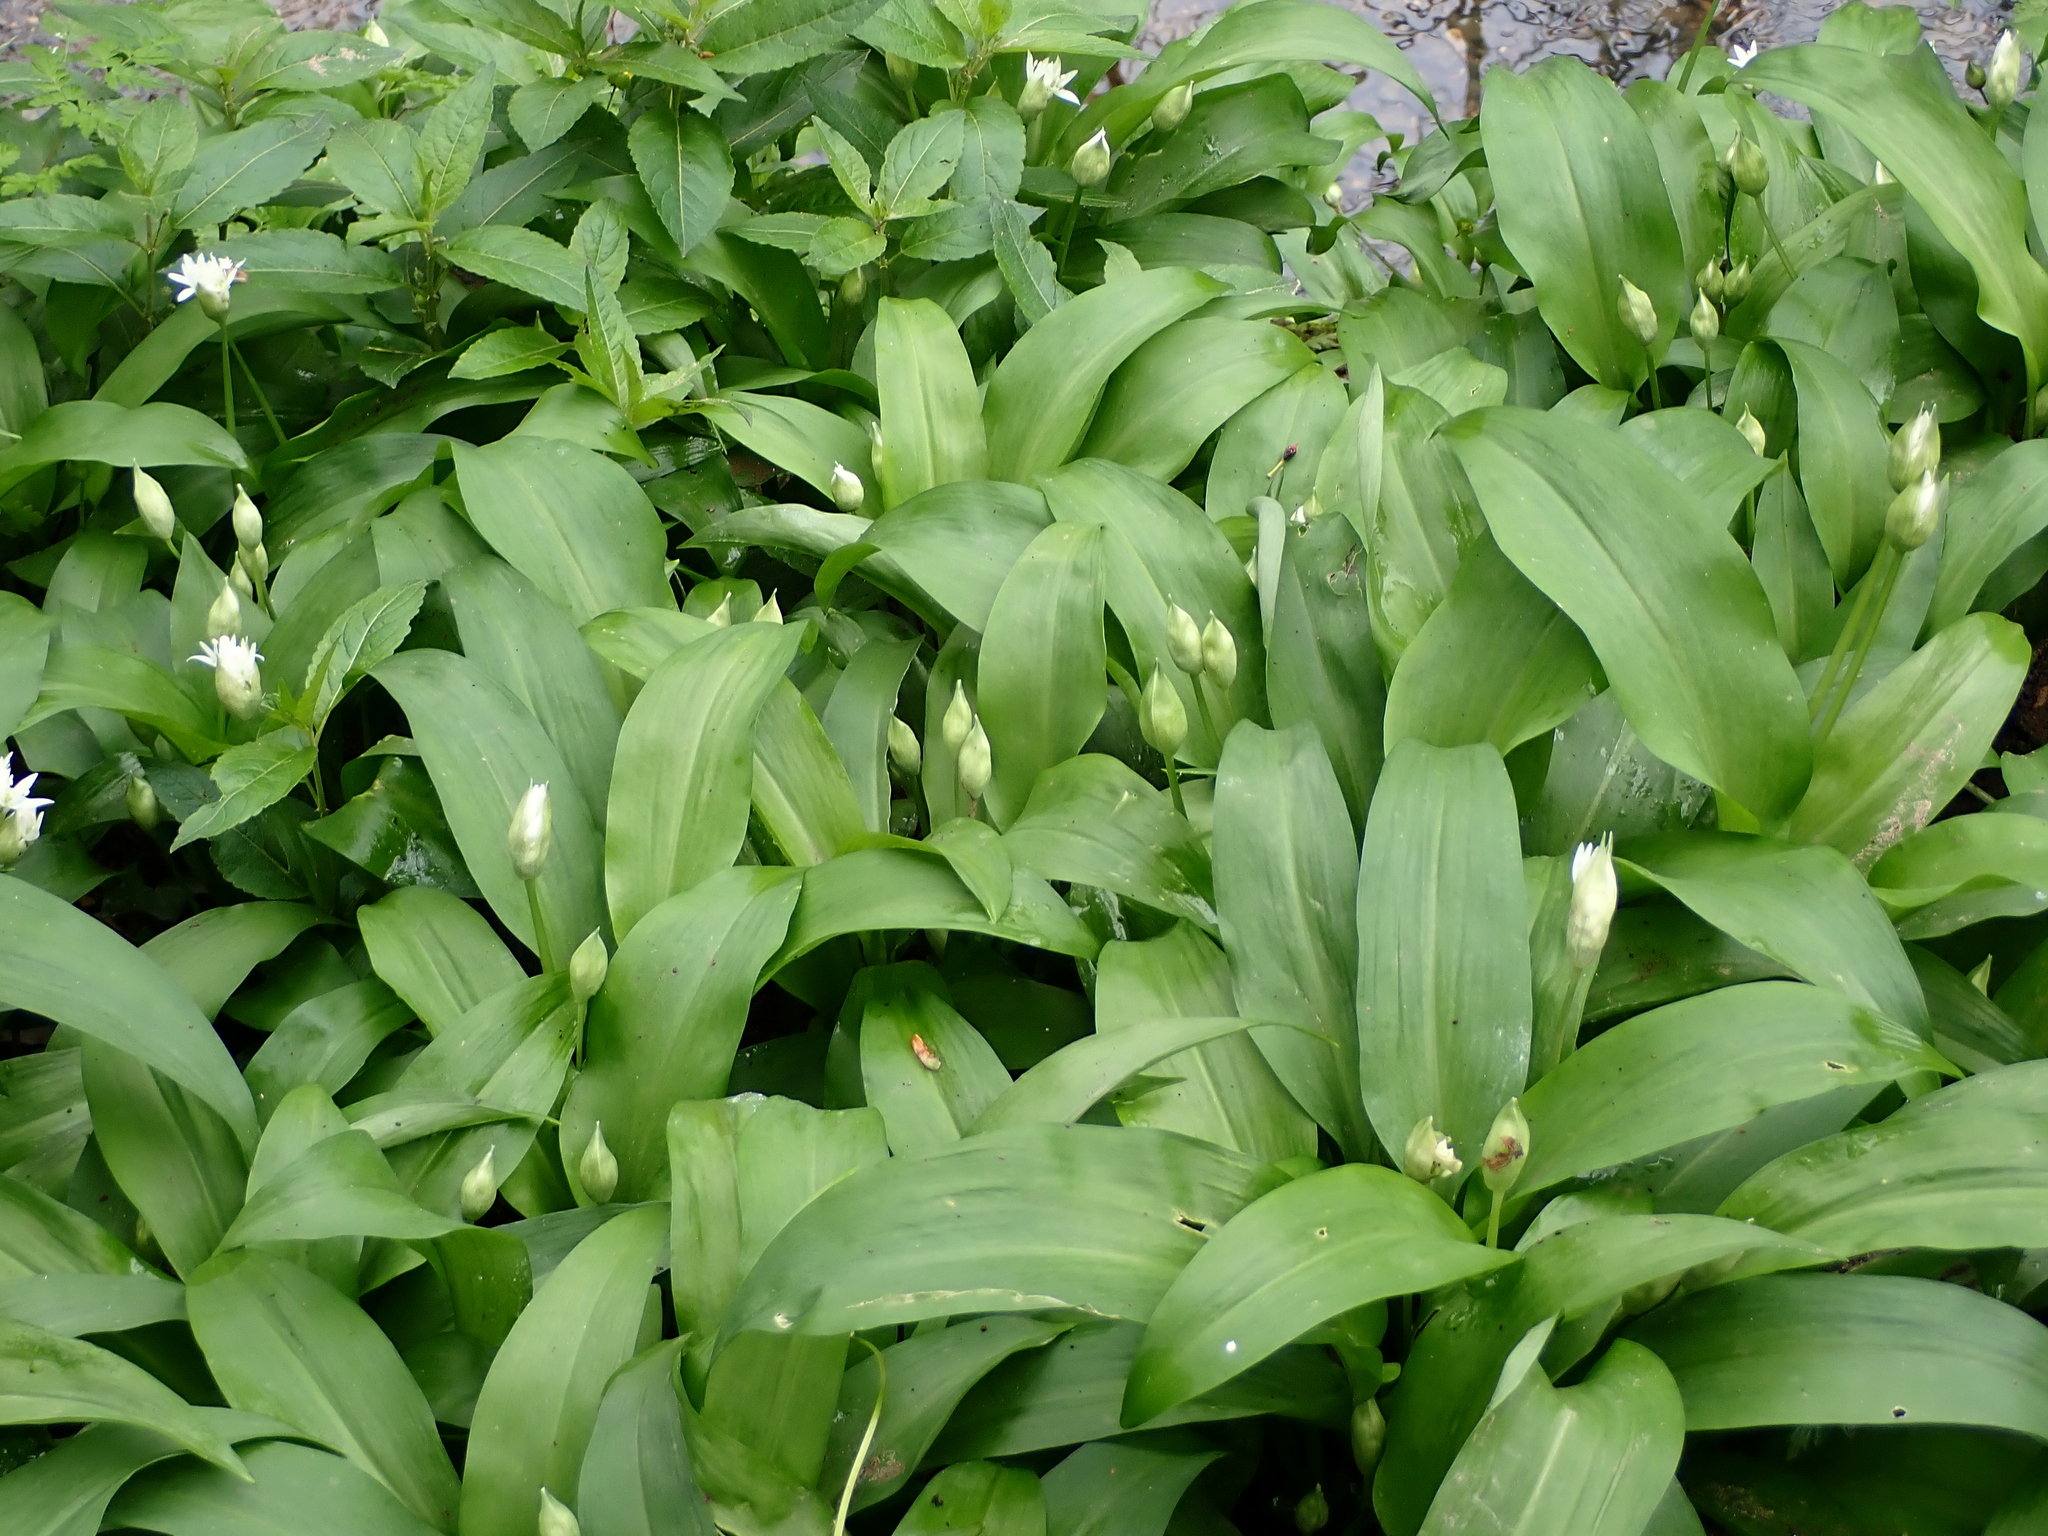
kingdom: Plantae
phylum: Tracheophyta
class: Liliopsida
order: Asparagales
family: Amaryllidaceae
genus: Allium
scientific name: Allium ursinum
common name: Ramsons
